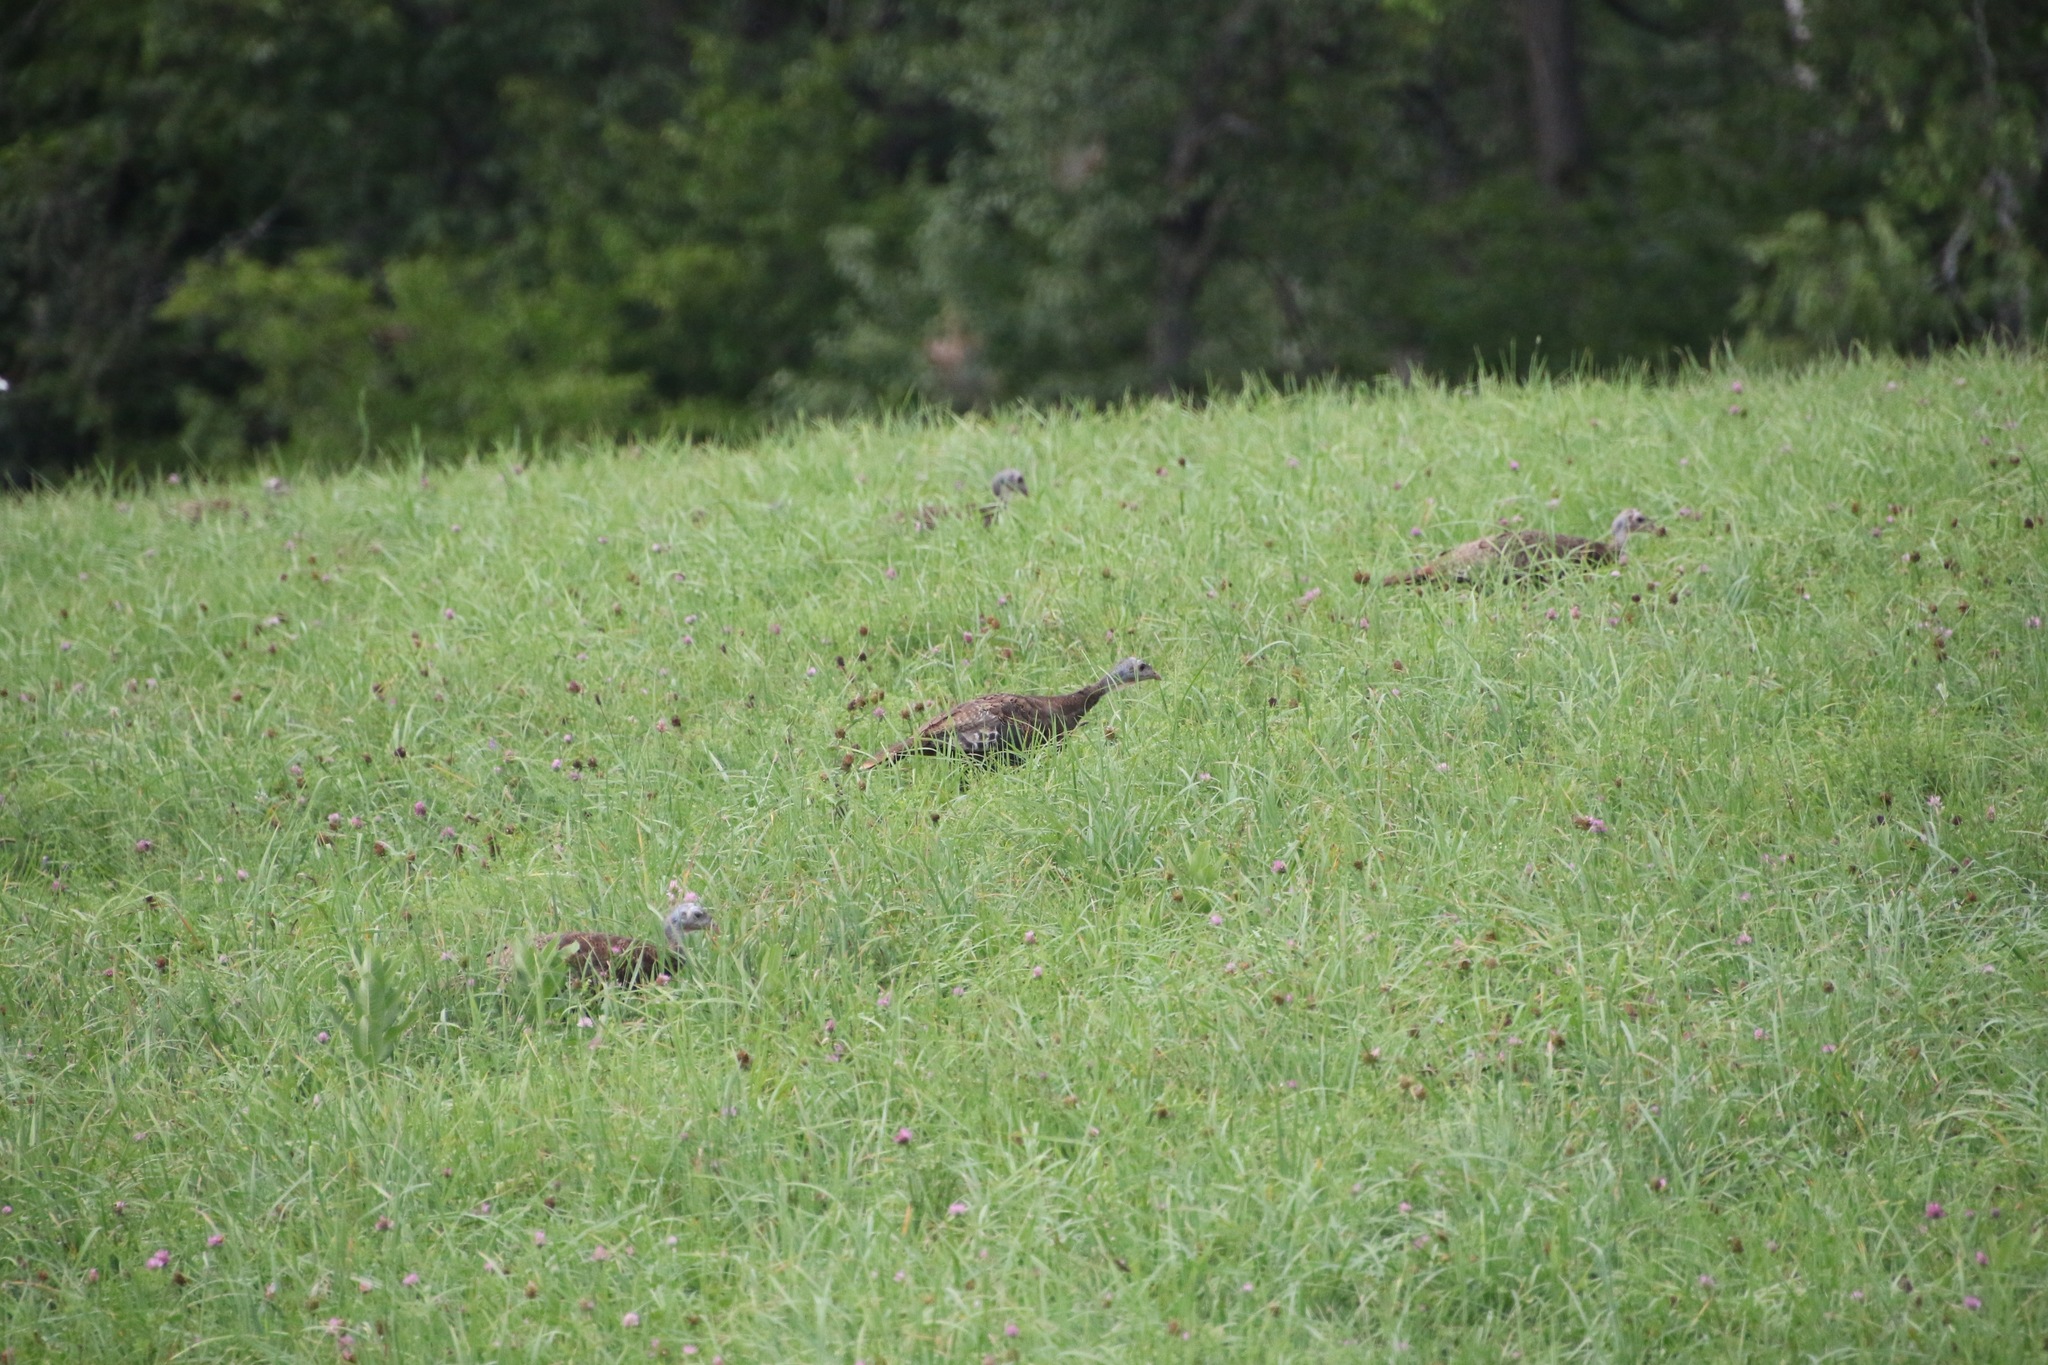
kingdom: Animalia
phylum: Chordata
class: Aves
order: Galliformes
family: Phasianidae
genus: Meleagris
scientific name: Meleagris gallopavo
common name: Wild turkey
